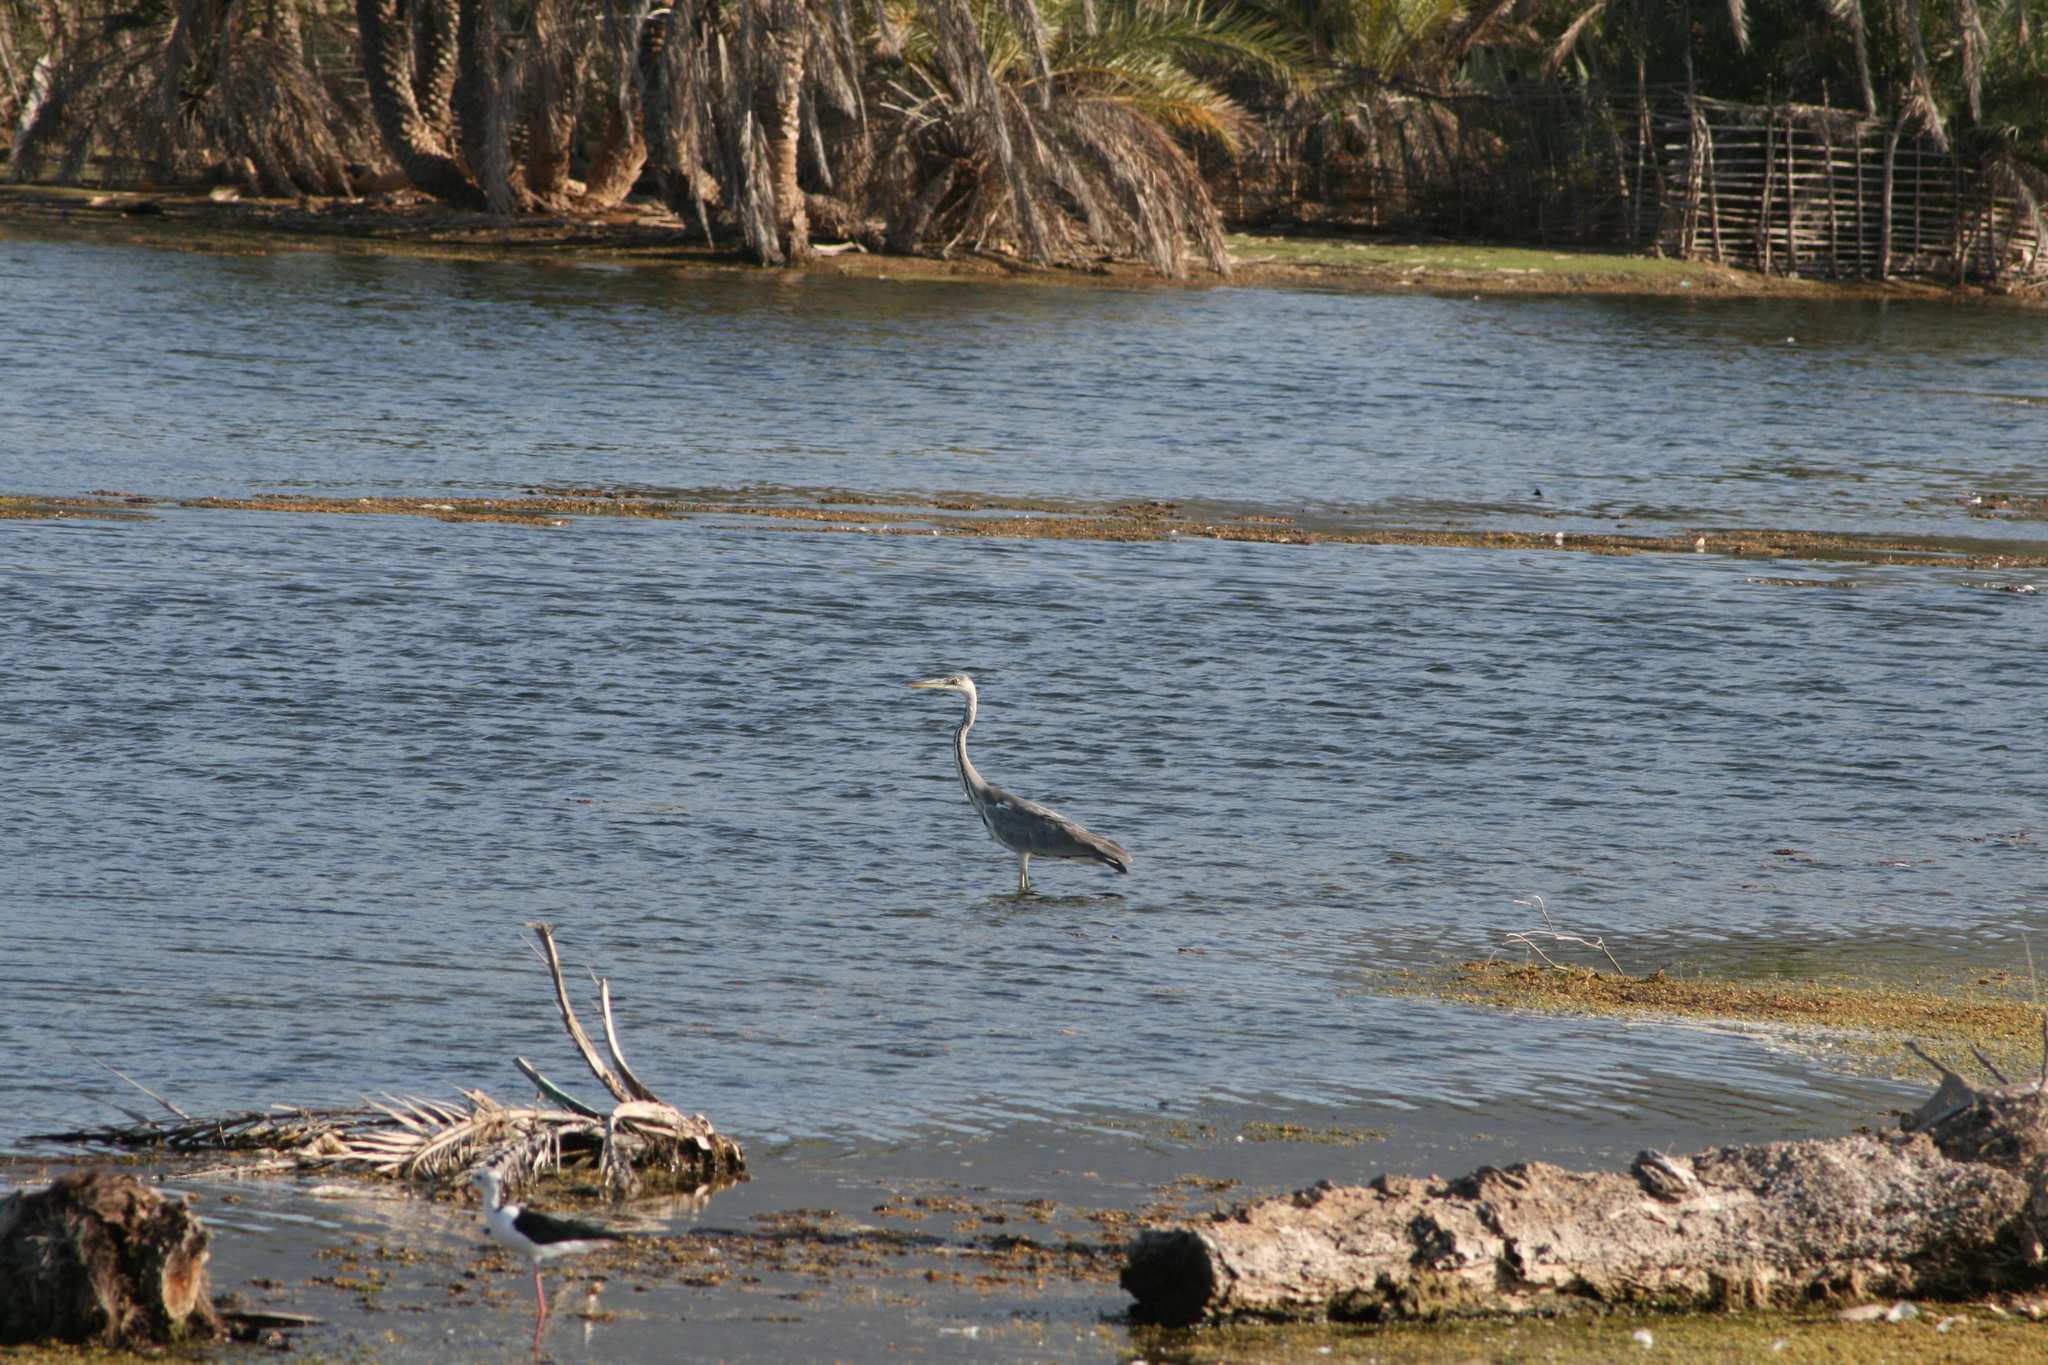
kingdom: Animalia
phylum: Chordata
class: Aves
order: Pelecaniformes
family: Ardeidae
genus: Ardea
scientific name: Ardea cinerea
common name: Grey heron
